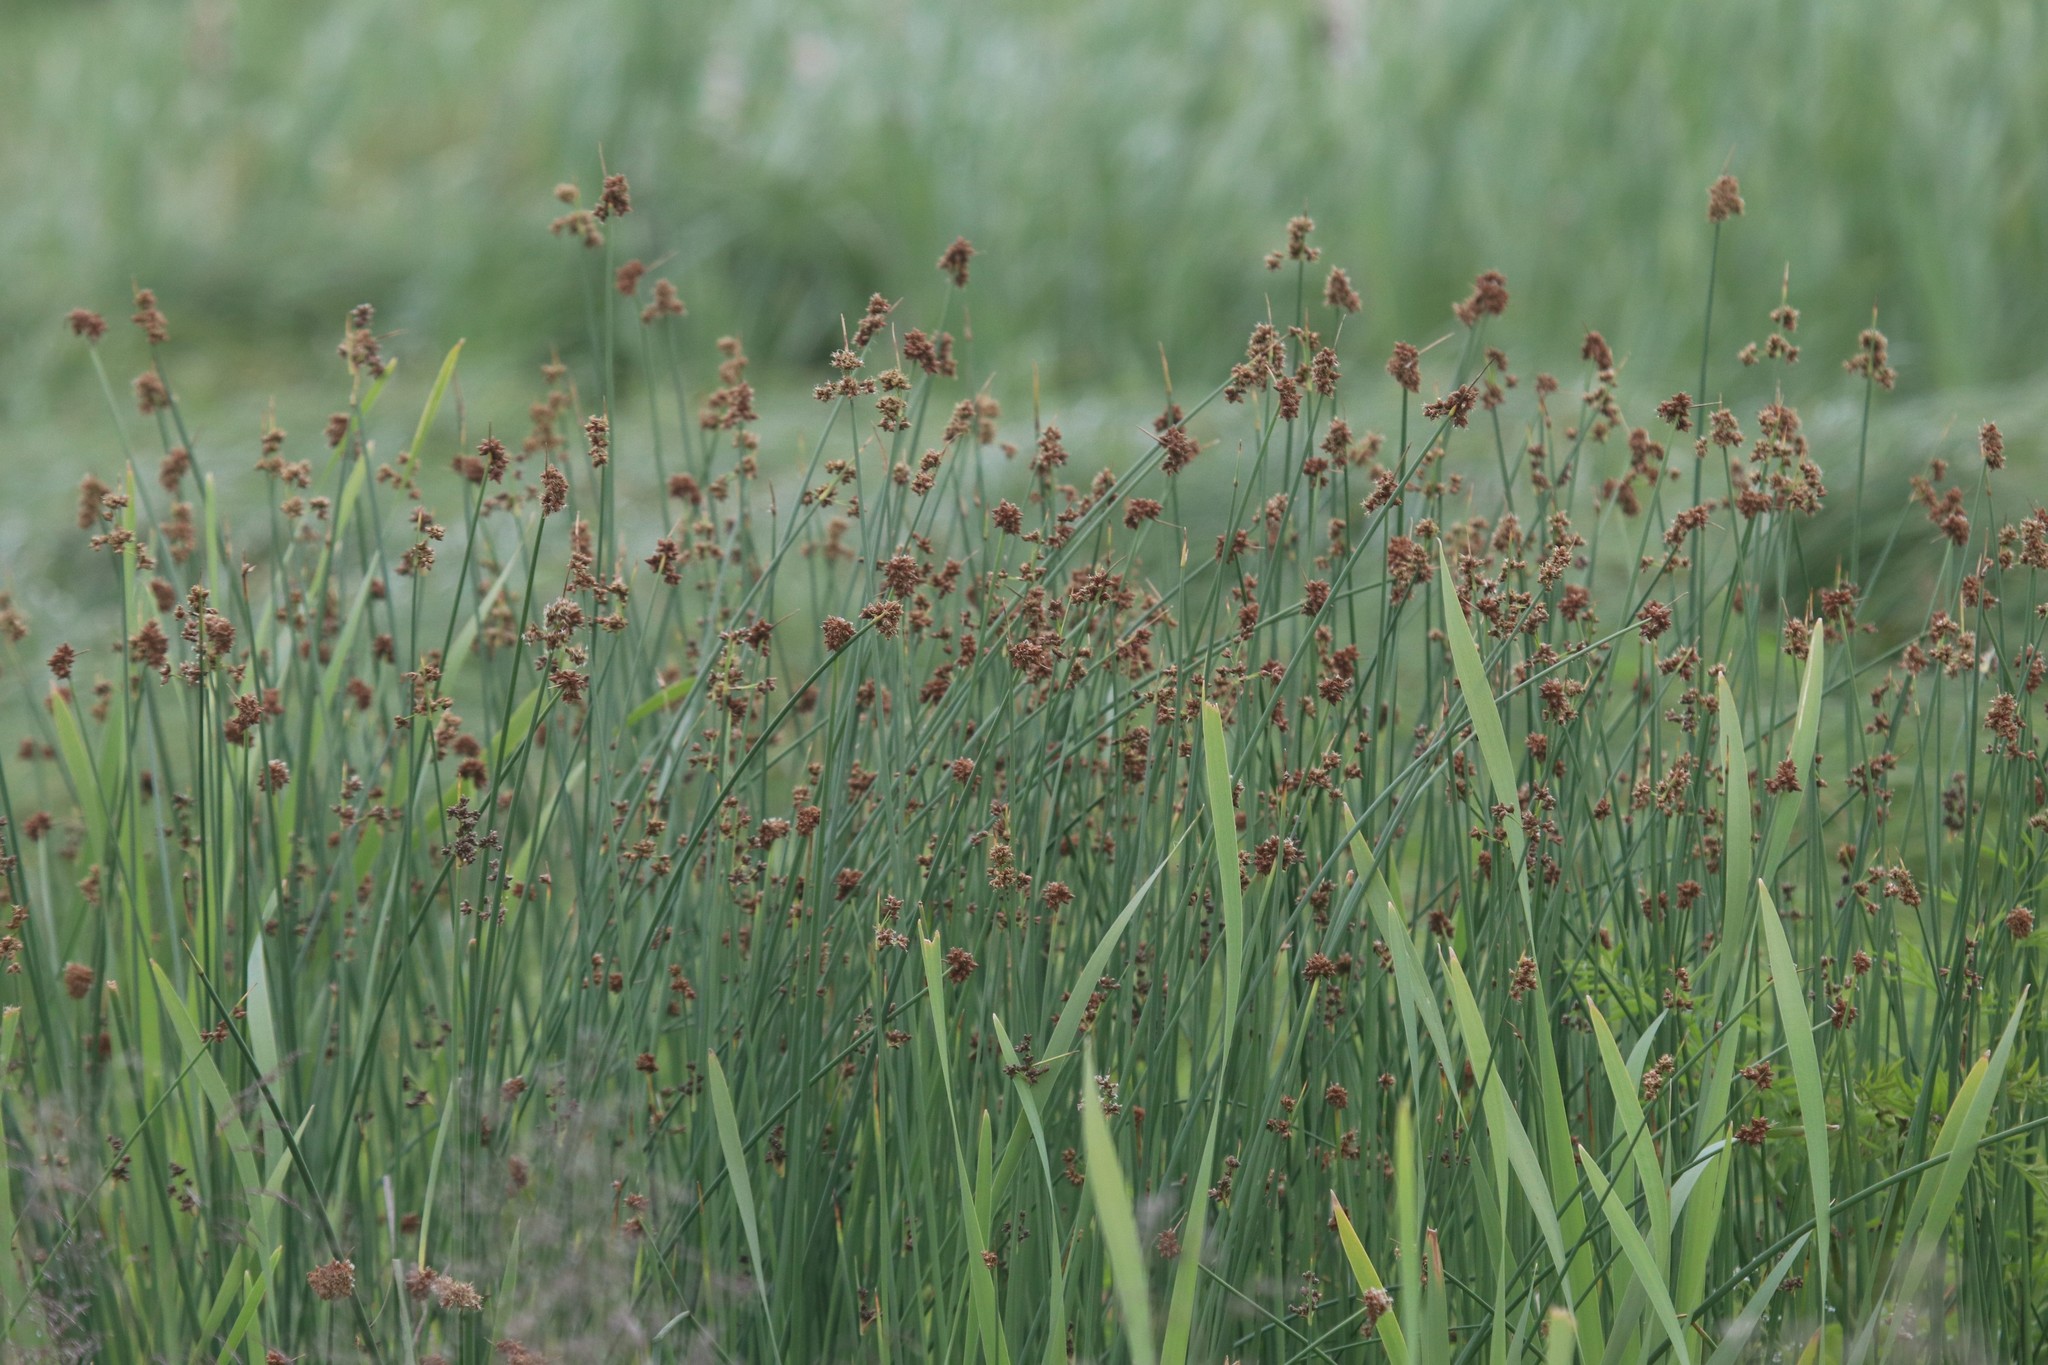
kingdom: Plantae
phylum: Tracheophyta
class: Liliopsida
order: Poales
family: Cyperaceae
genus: Schoenoplectus
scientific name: Schoenoplectus lacustris
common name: Common club-rush
